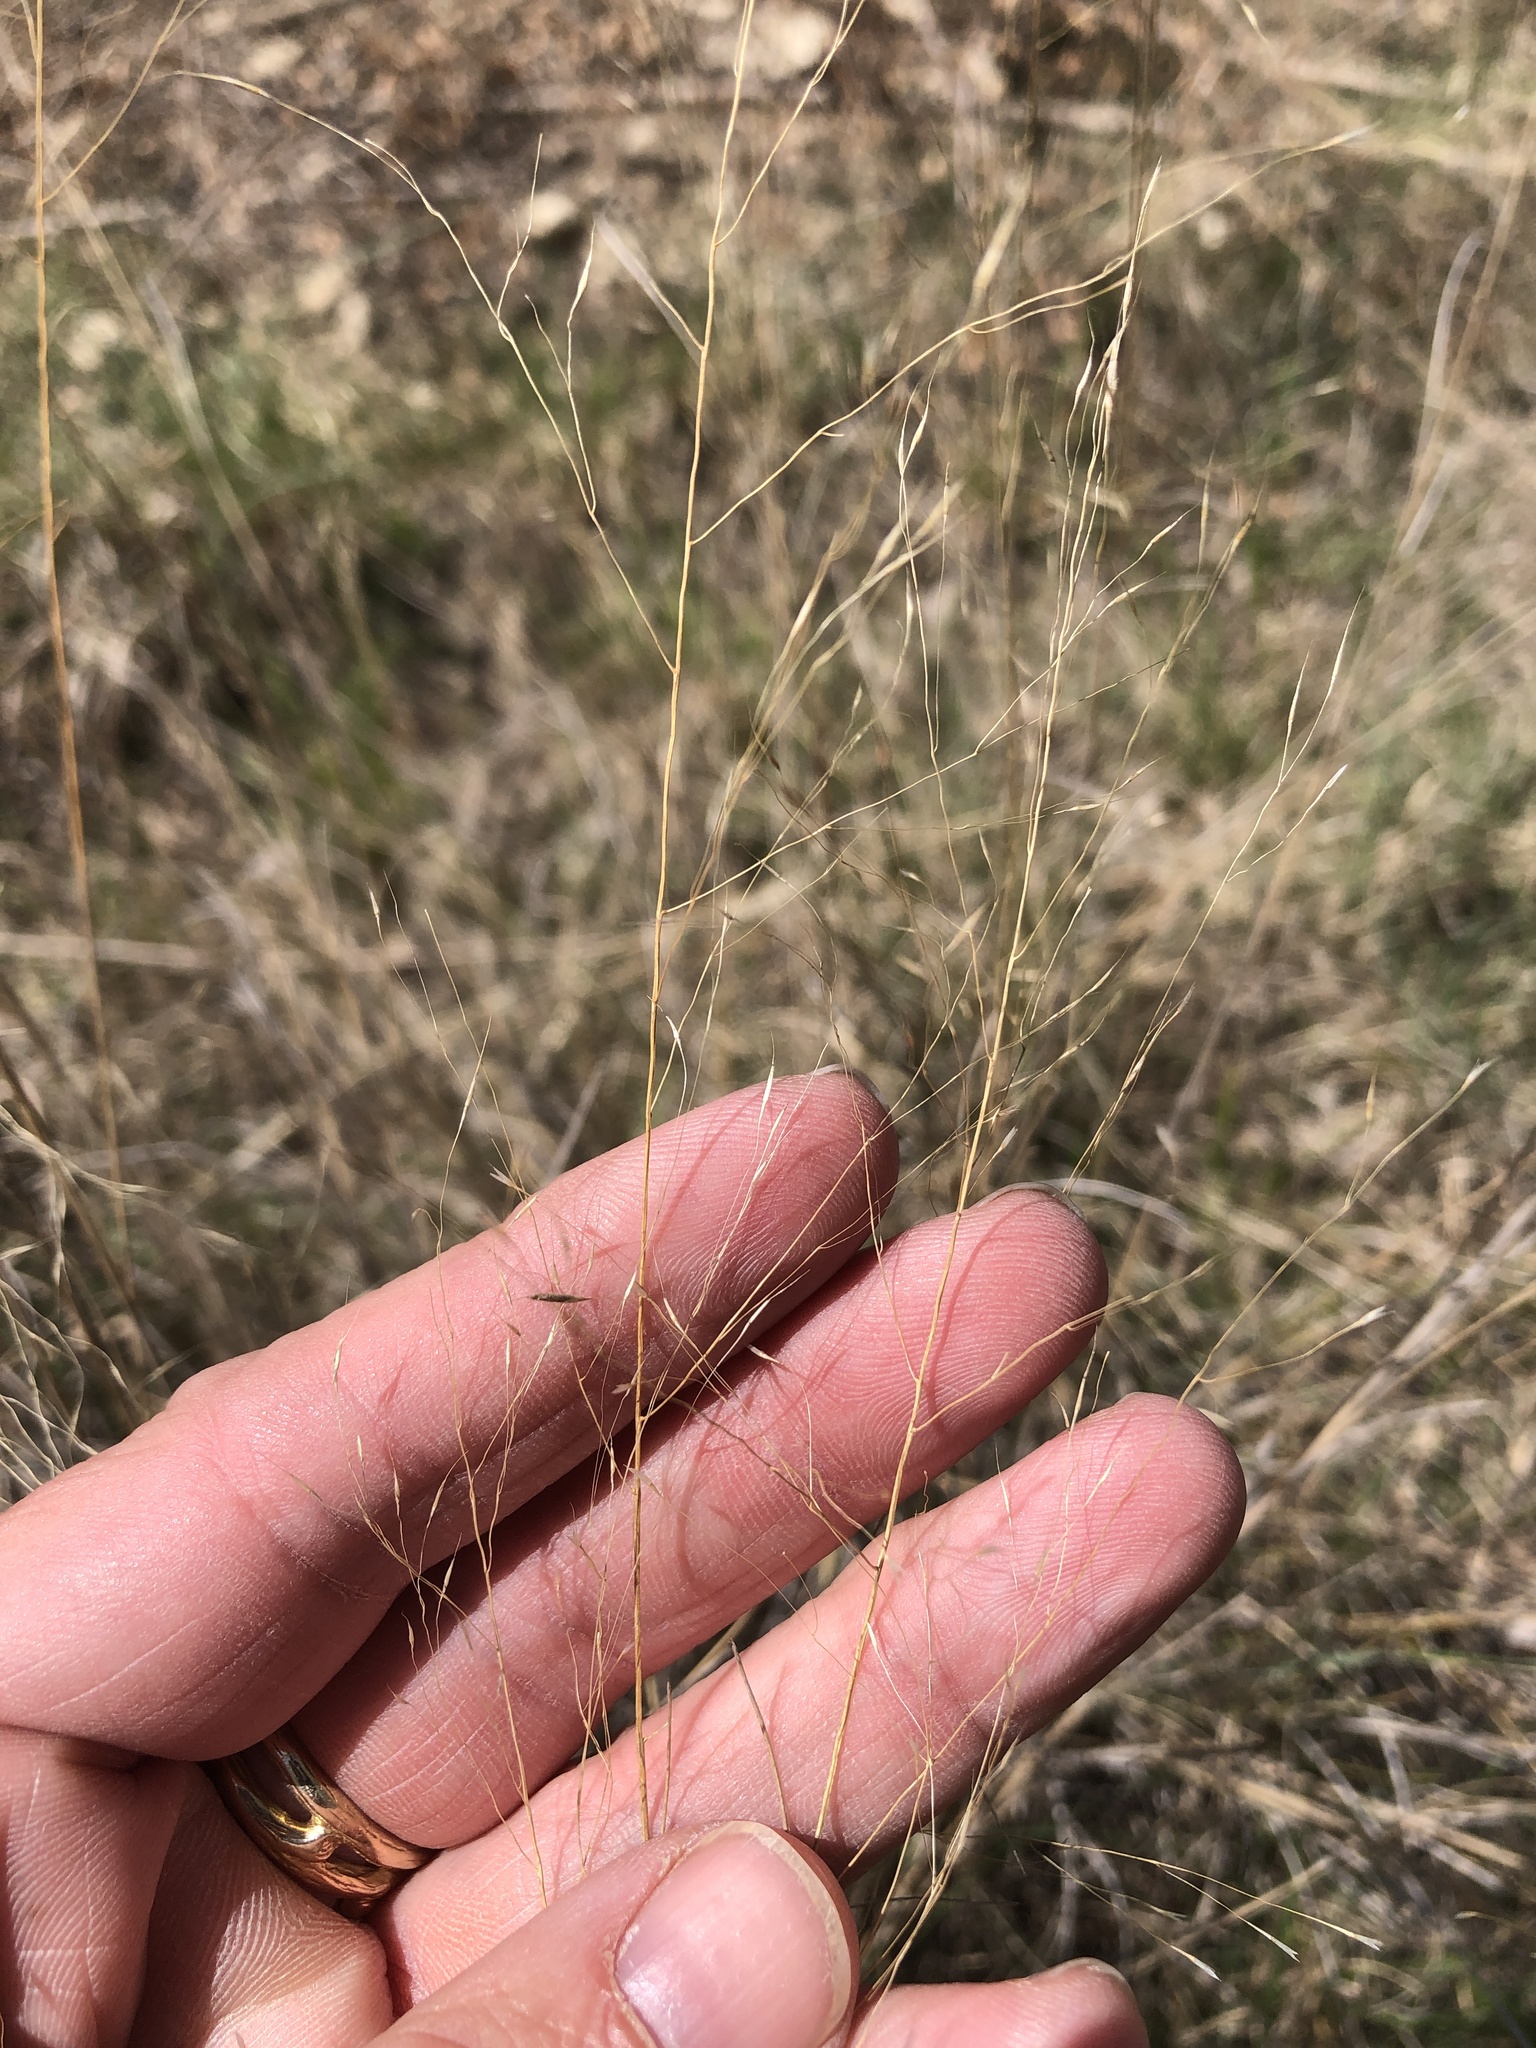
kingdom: Plantae
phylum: Tracheophyta
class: Liliopsida
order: Poales
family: Poaceae
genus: Muhlenbergia
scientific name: Muhlenbergia reverchonii
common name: Seep muhly
